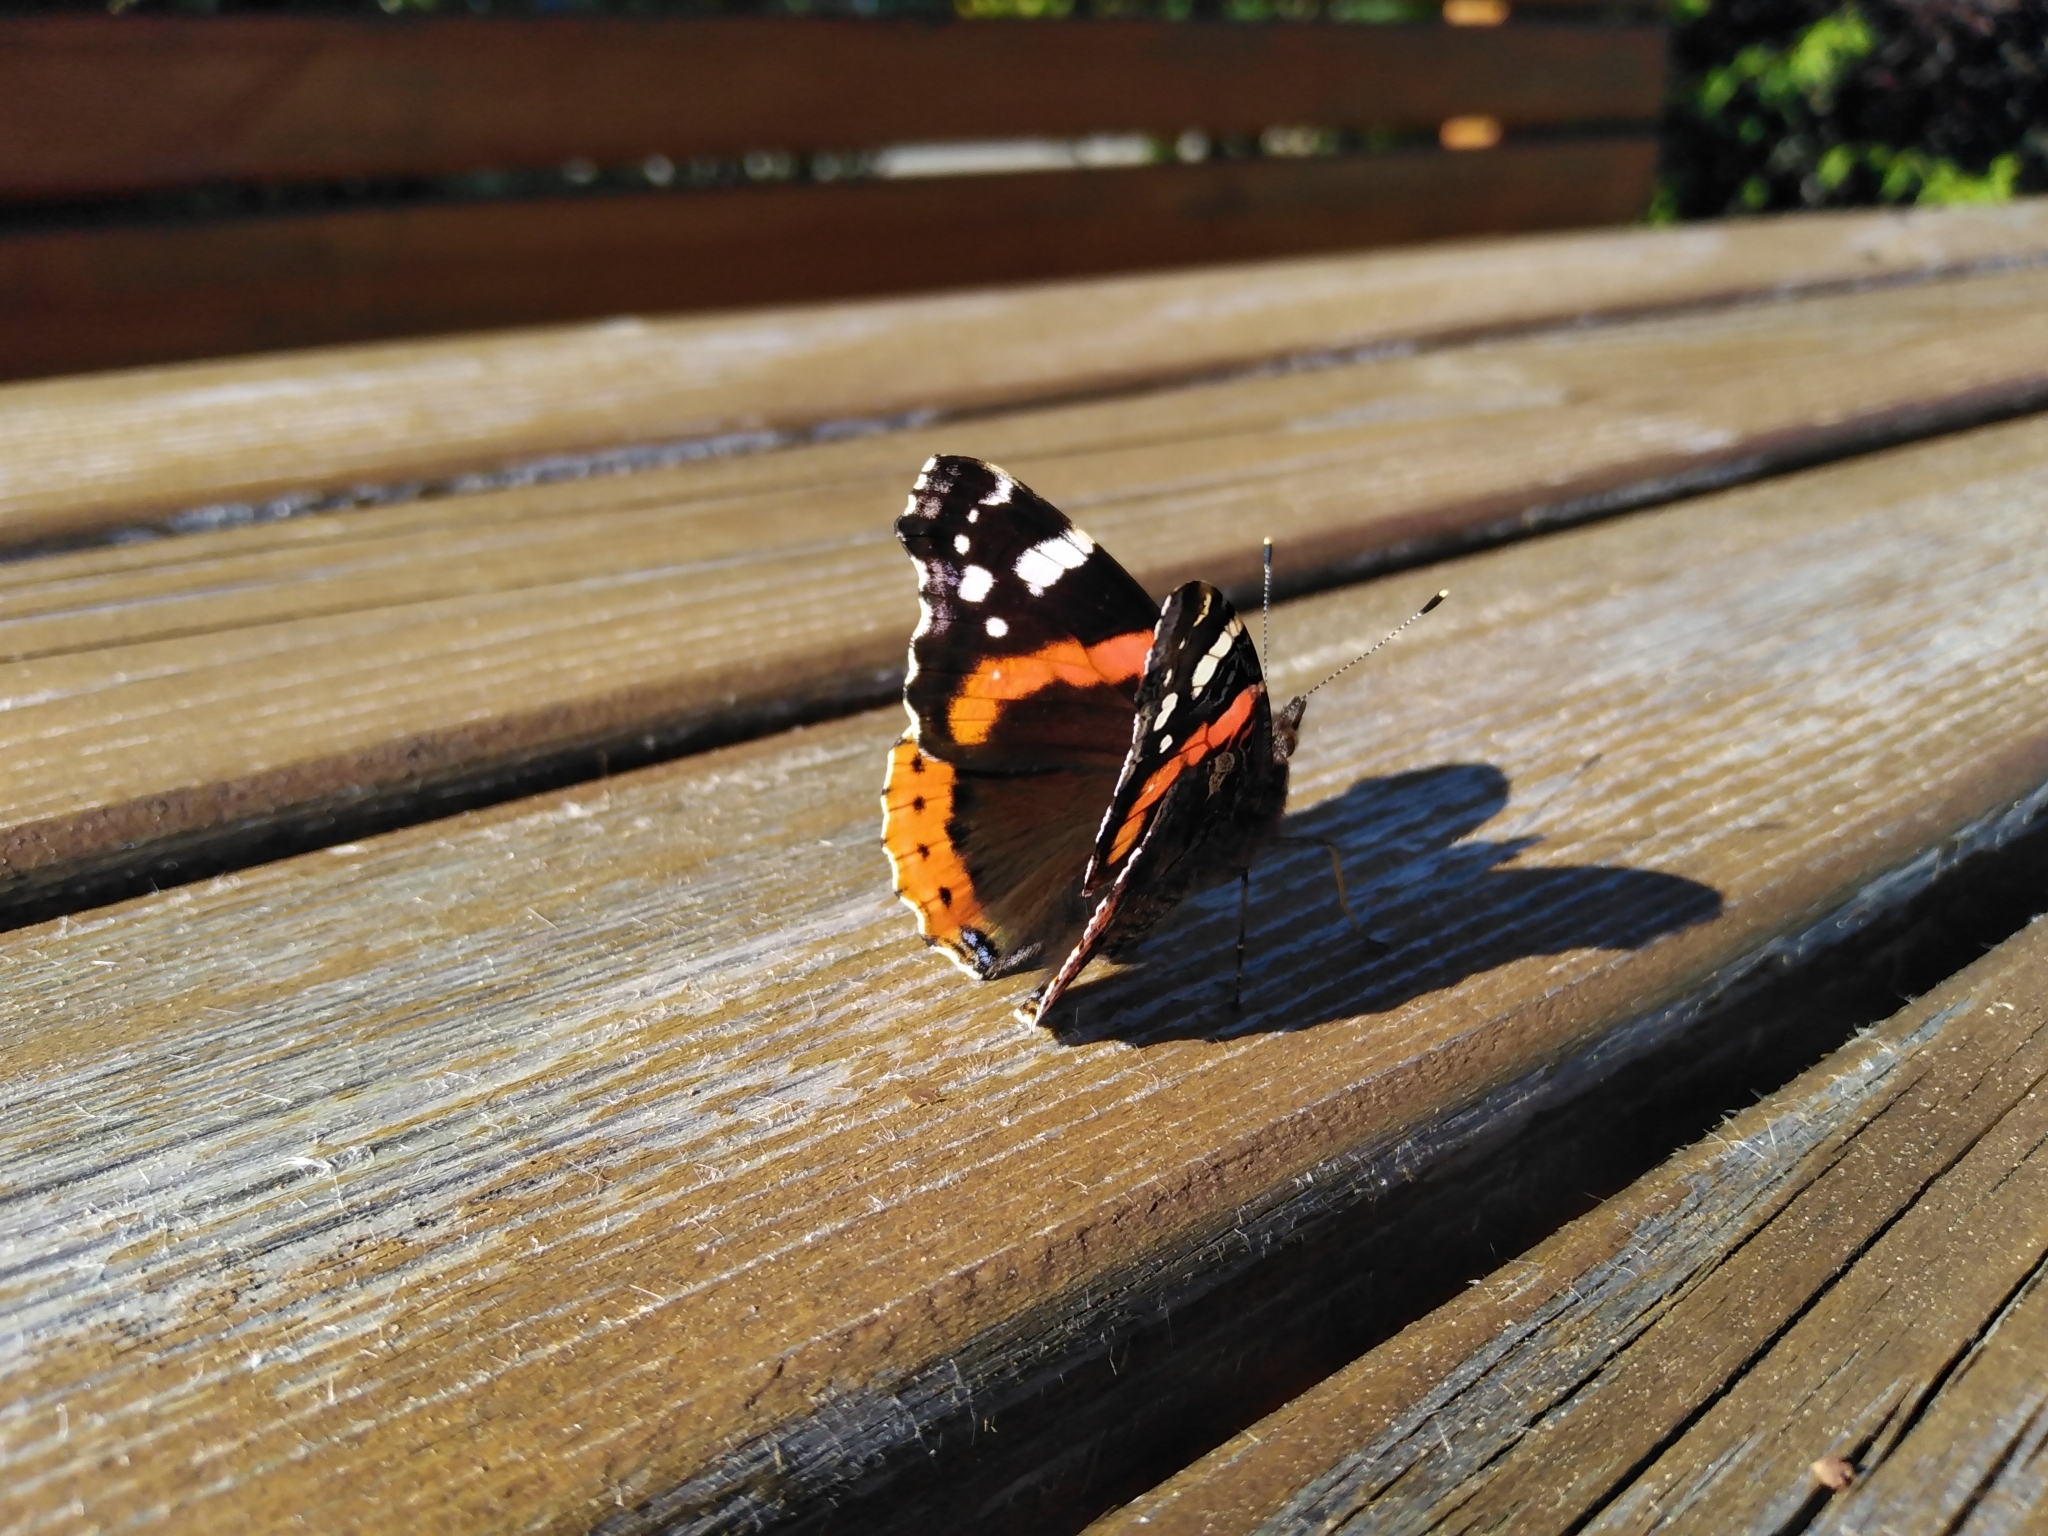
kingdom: Animalia
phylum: Arthropoda
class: Insecta
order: Lepidoptera
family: Nymphalidae
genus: Vanessa
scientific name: Vanessa atalanta
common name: Red admiral
